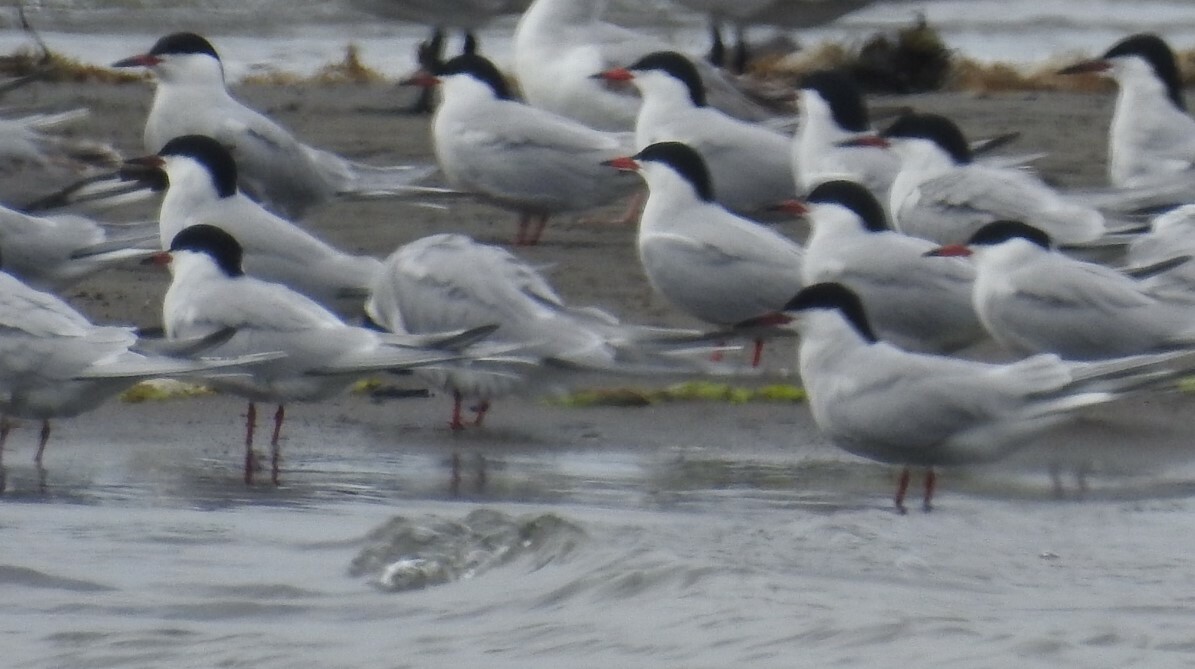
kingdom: Animalia
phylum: Chordata
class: Aves
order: Charadriiformes
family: Laridae
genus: Sterna
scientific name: Sterna hirundo
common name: Common tern
